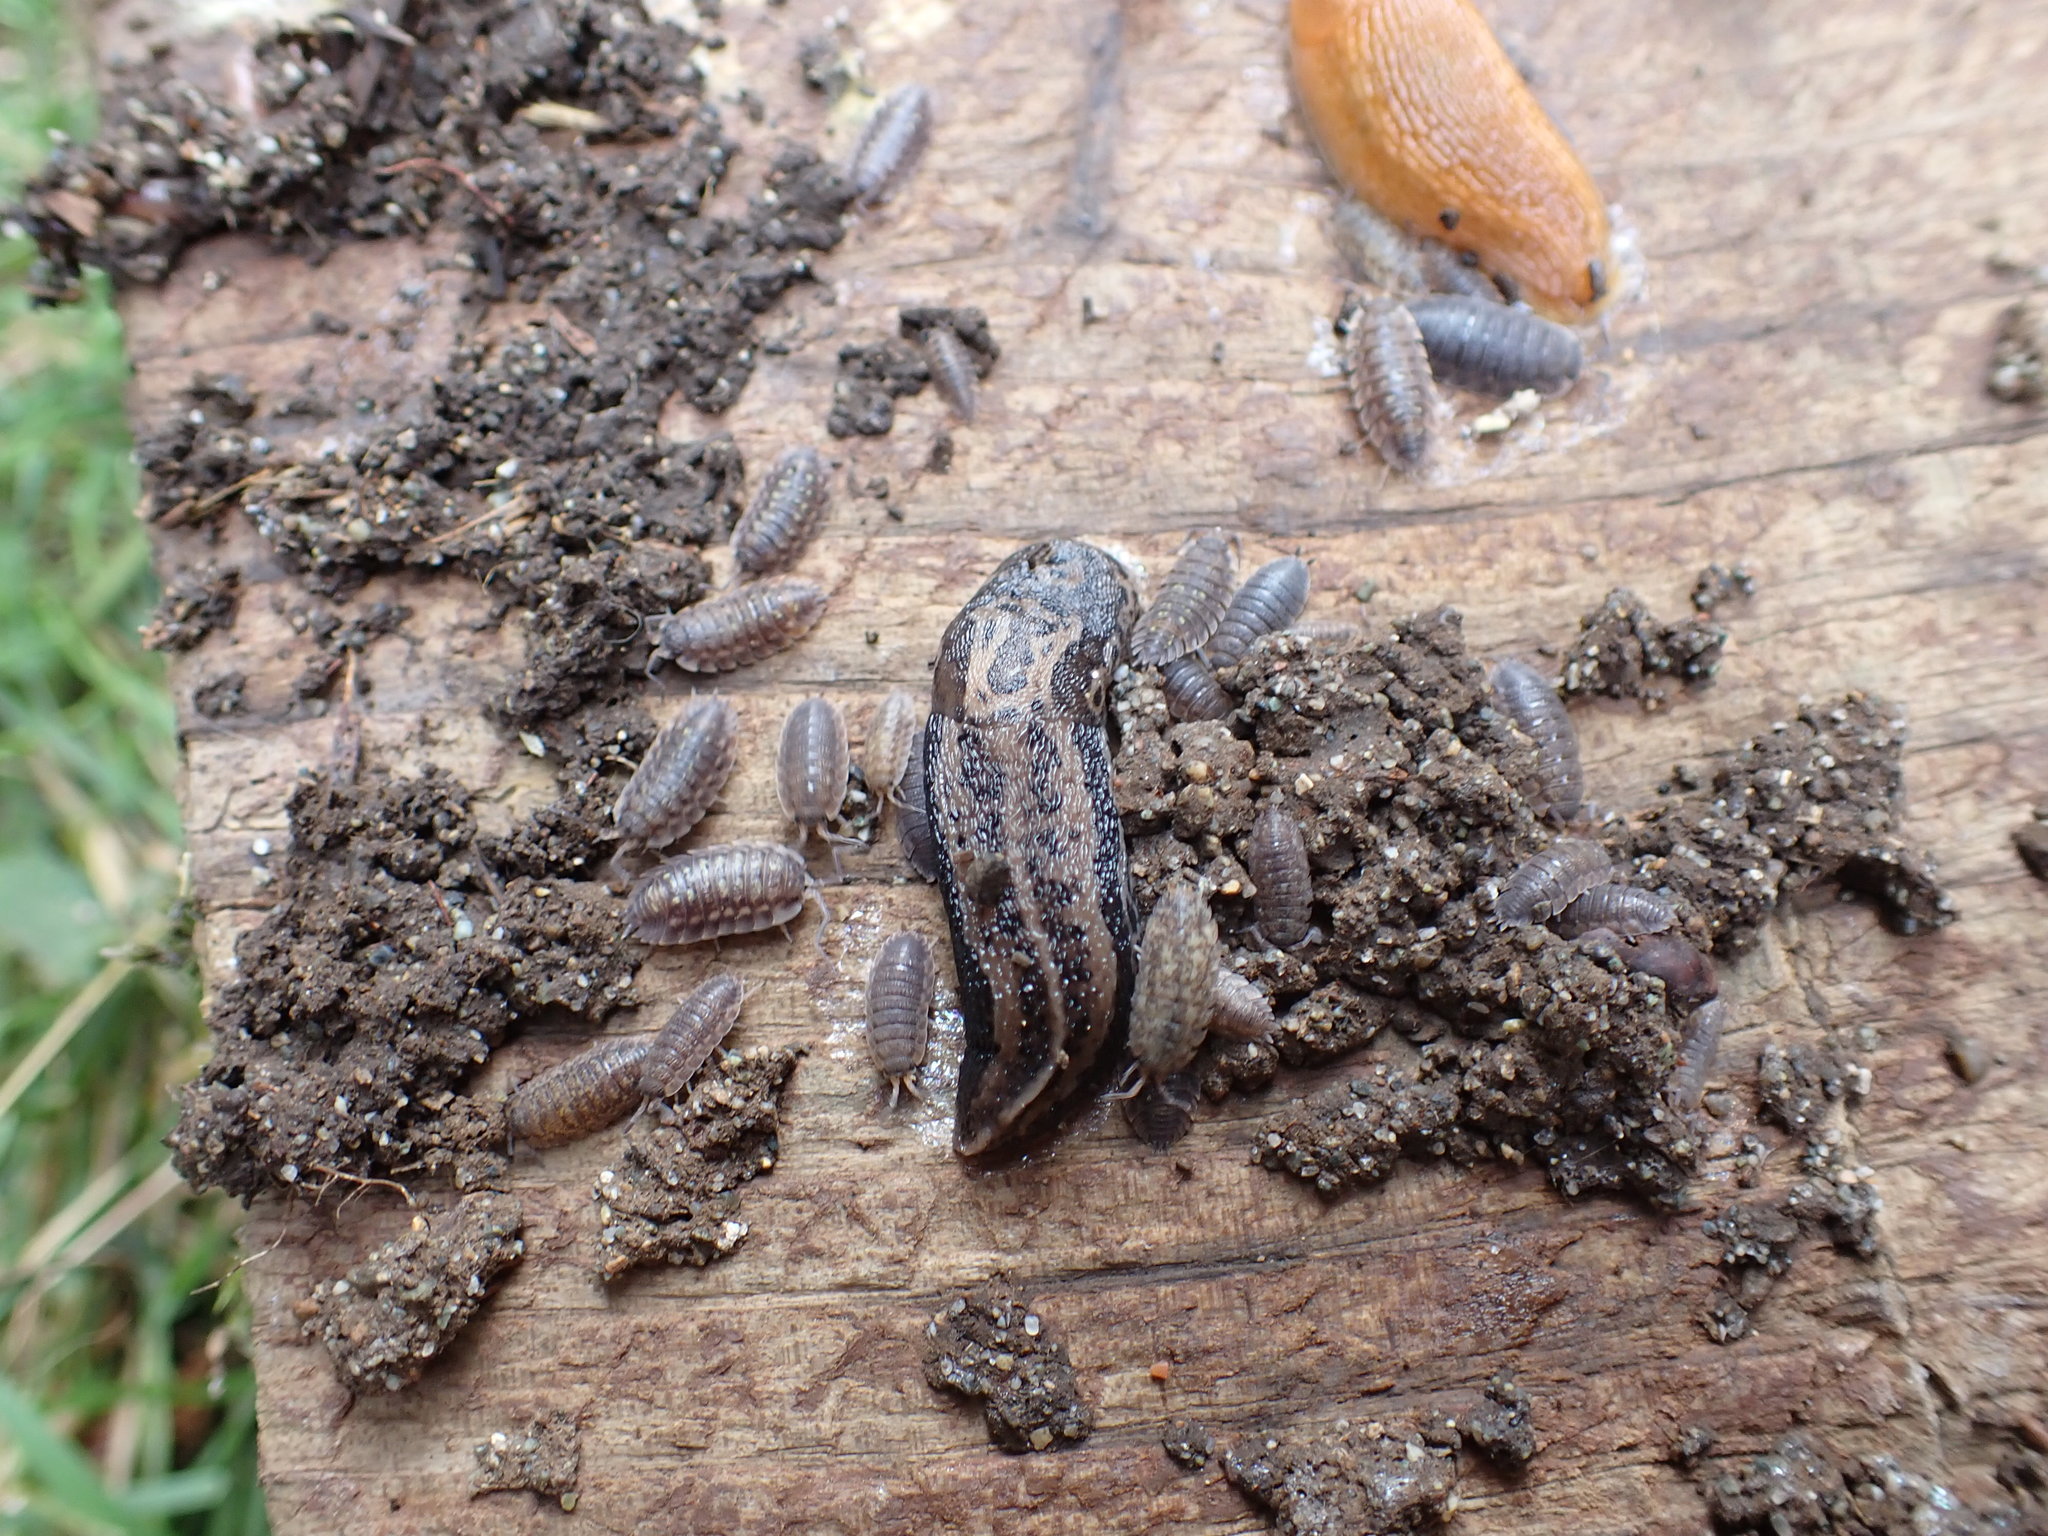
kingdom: Animalia
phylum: Arthropoda
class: Malacostraca
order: Isopoda
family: Oniscidae
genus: Oniscus
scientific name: Oniscus asellus
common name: Common shiny woodlouse
